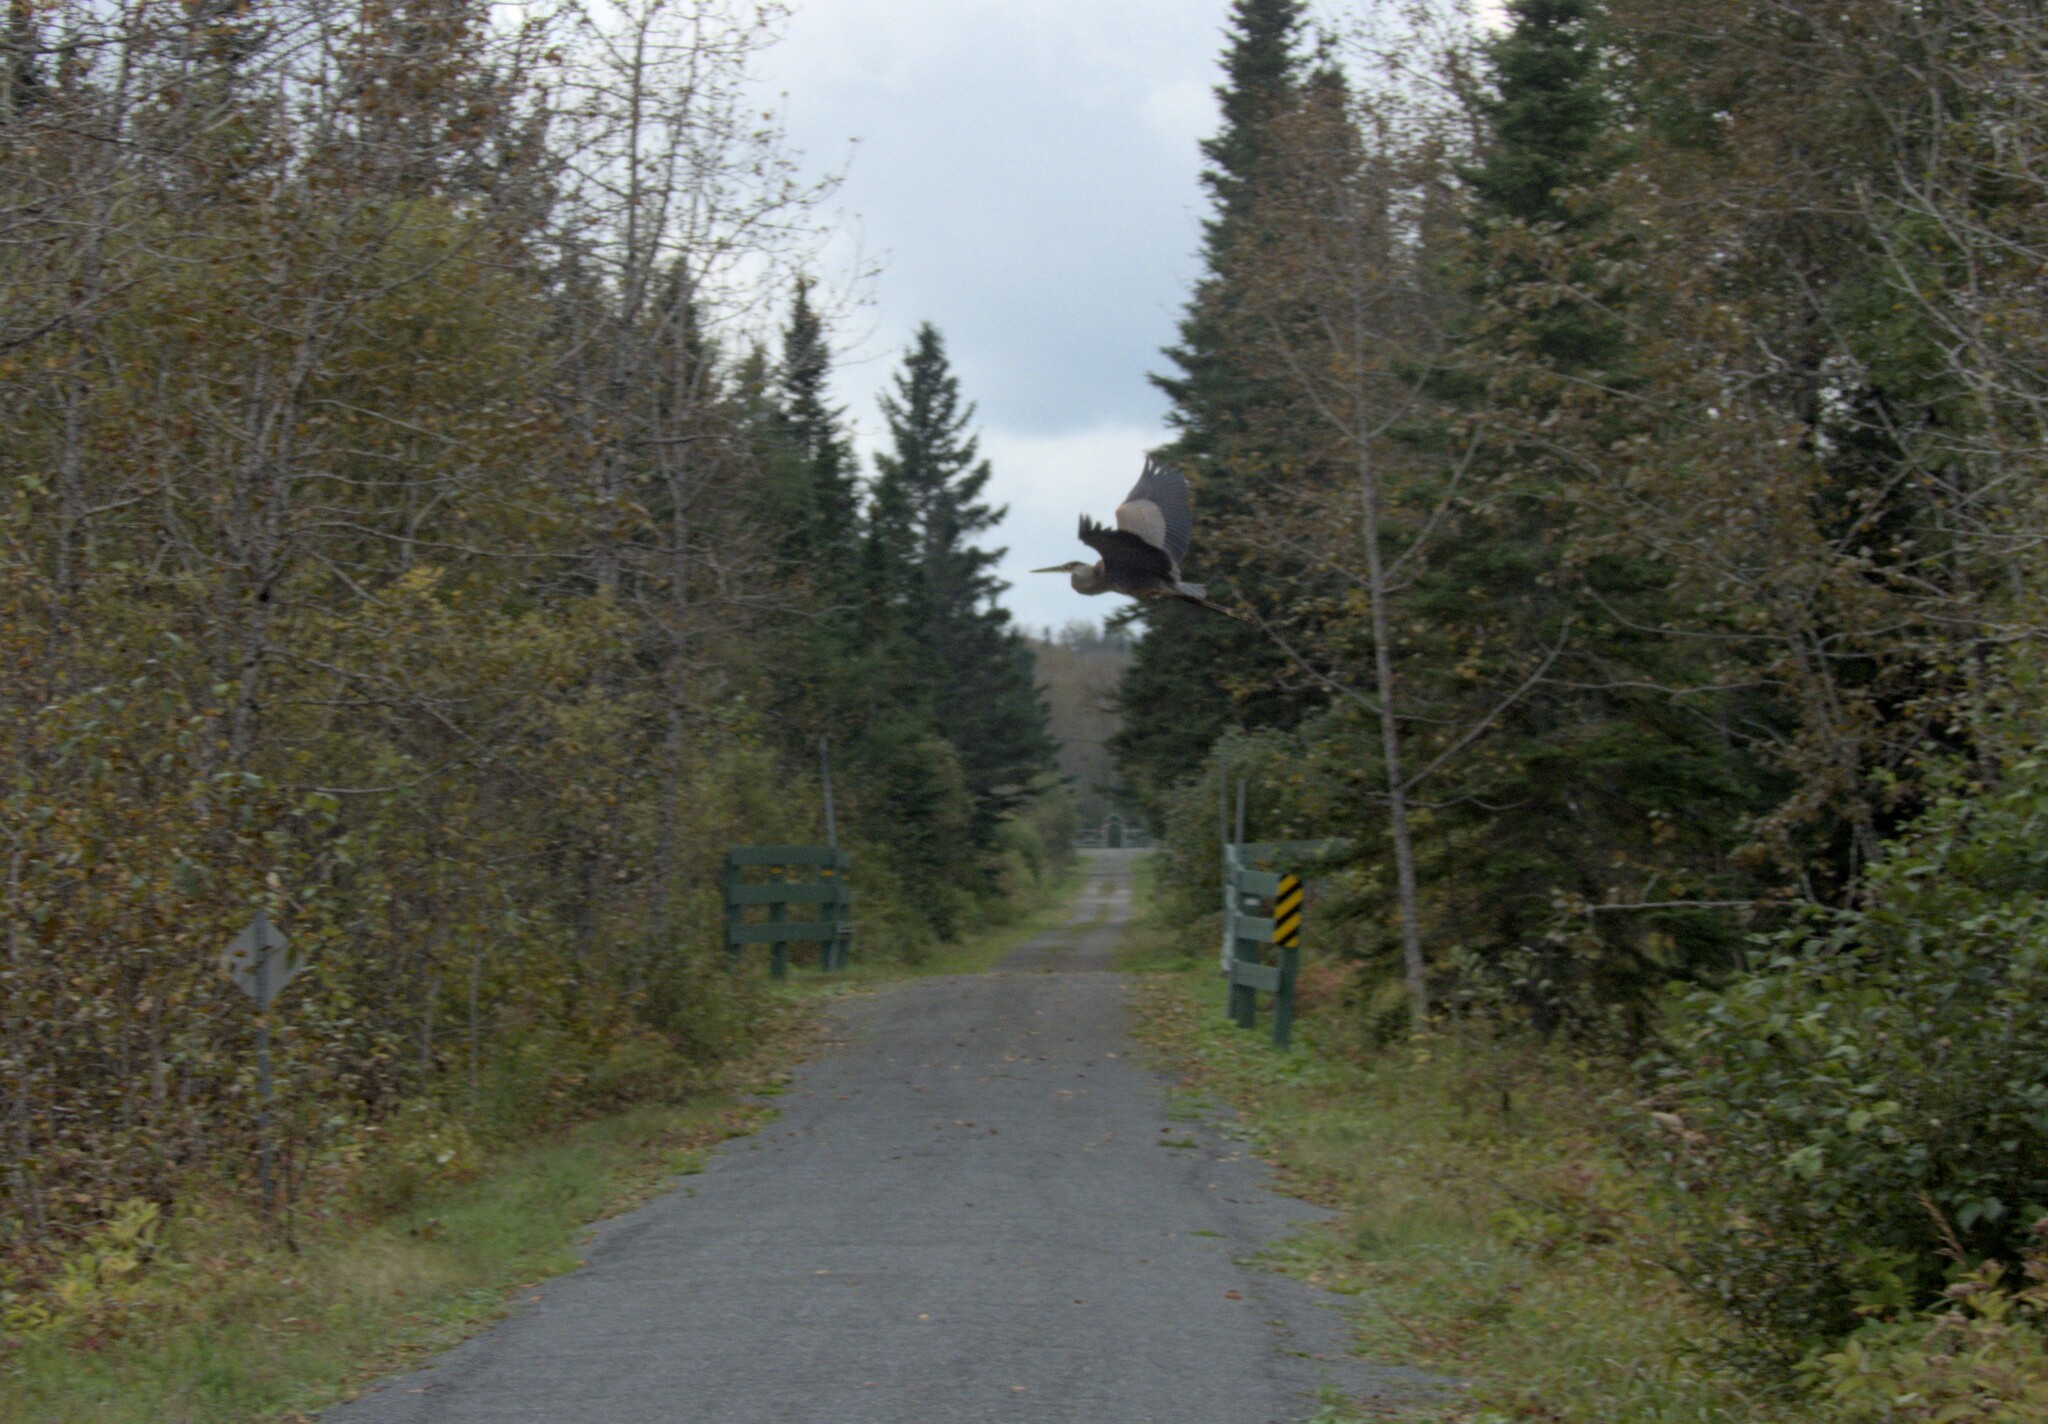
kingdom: Animalia
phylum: Chordata
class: Aves
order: Pelecaniformes
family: Ardeidae
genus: Ardea
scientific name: Ardea herodias
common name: Great blue heron
